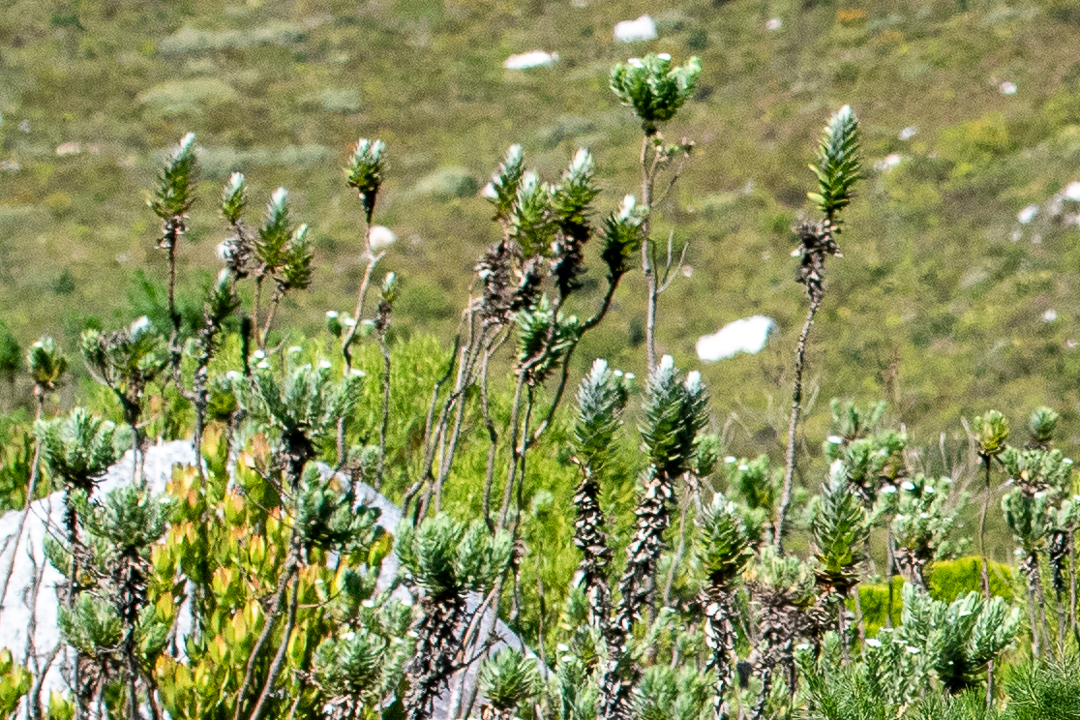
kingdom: Plantae
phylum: Tracheophyta
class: Magnoliopsida
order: Asterales
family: Asteraceae
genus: Osmitopsis
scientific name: Osmitopsis asteriscoides
